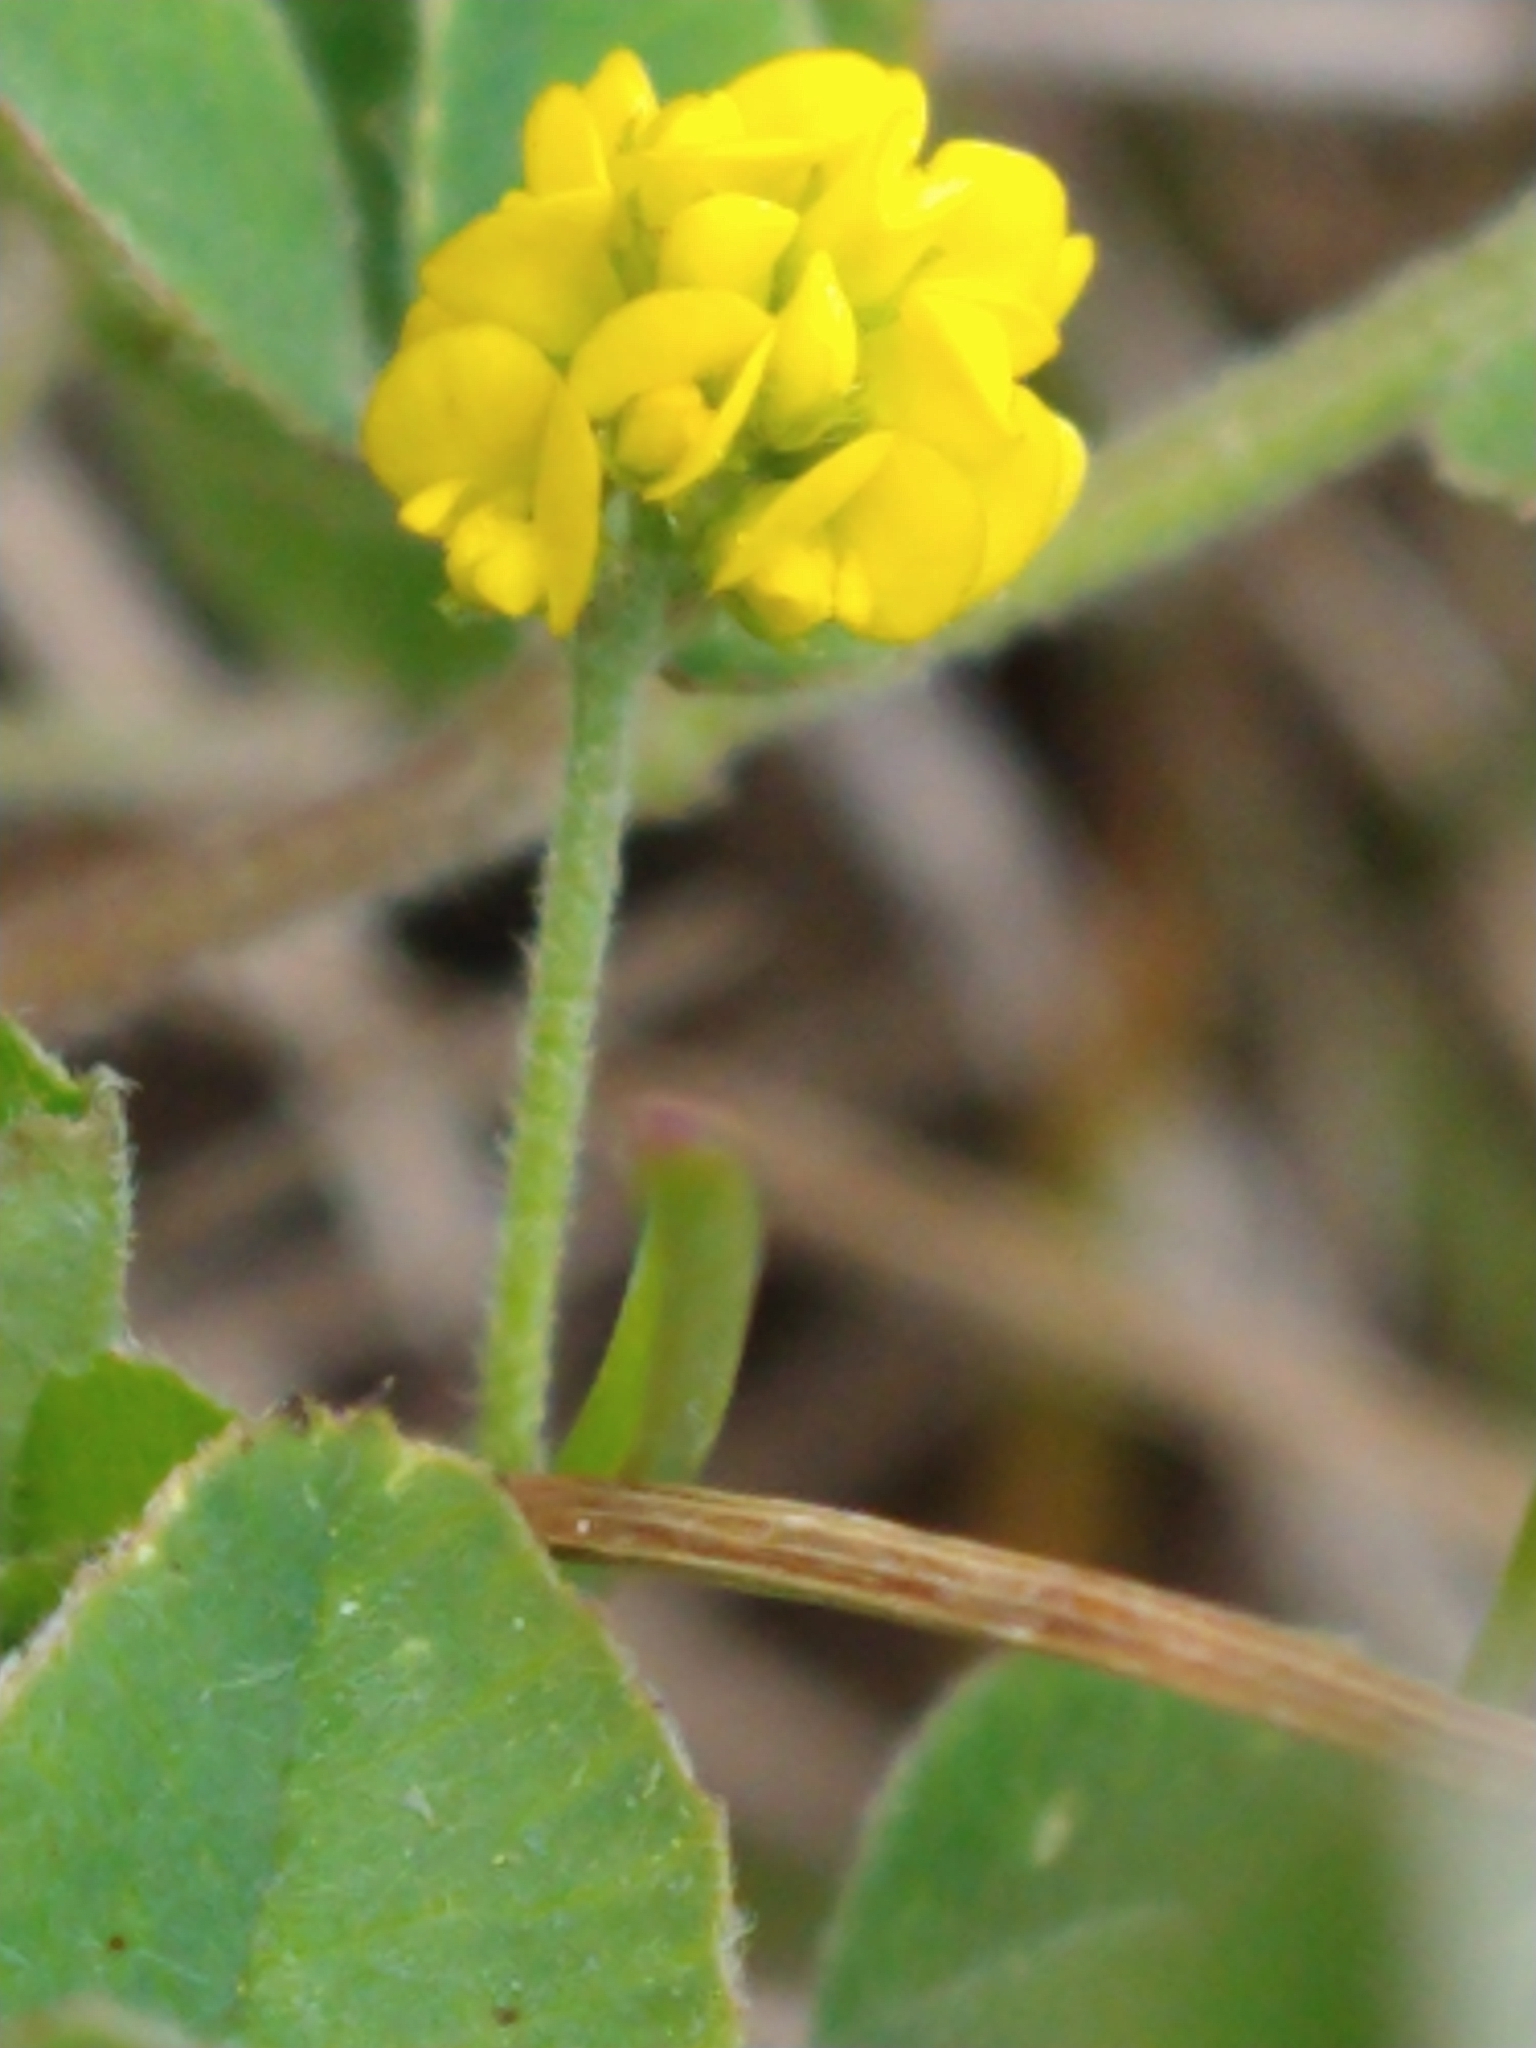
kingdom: Plantae
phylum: Tracheophyta
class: Magnoliopsida
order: Fabales
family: Fabaceae
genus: Medicago
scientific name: Medicago lupulina
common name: Black medick
